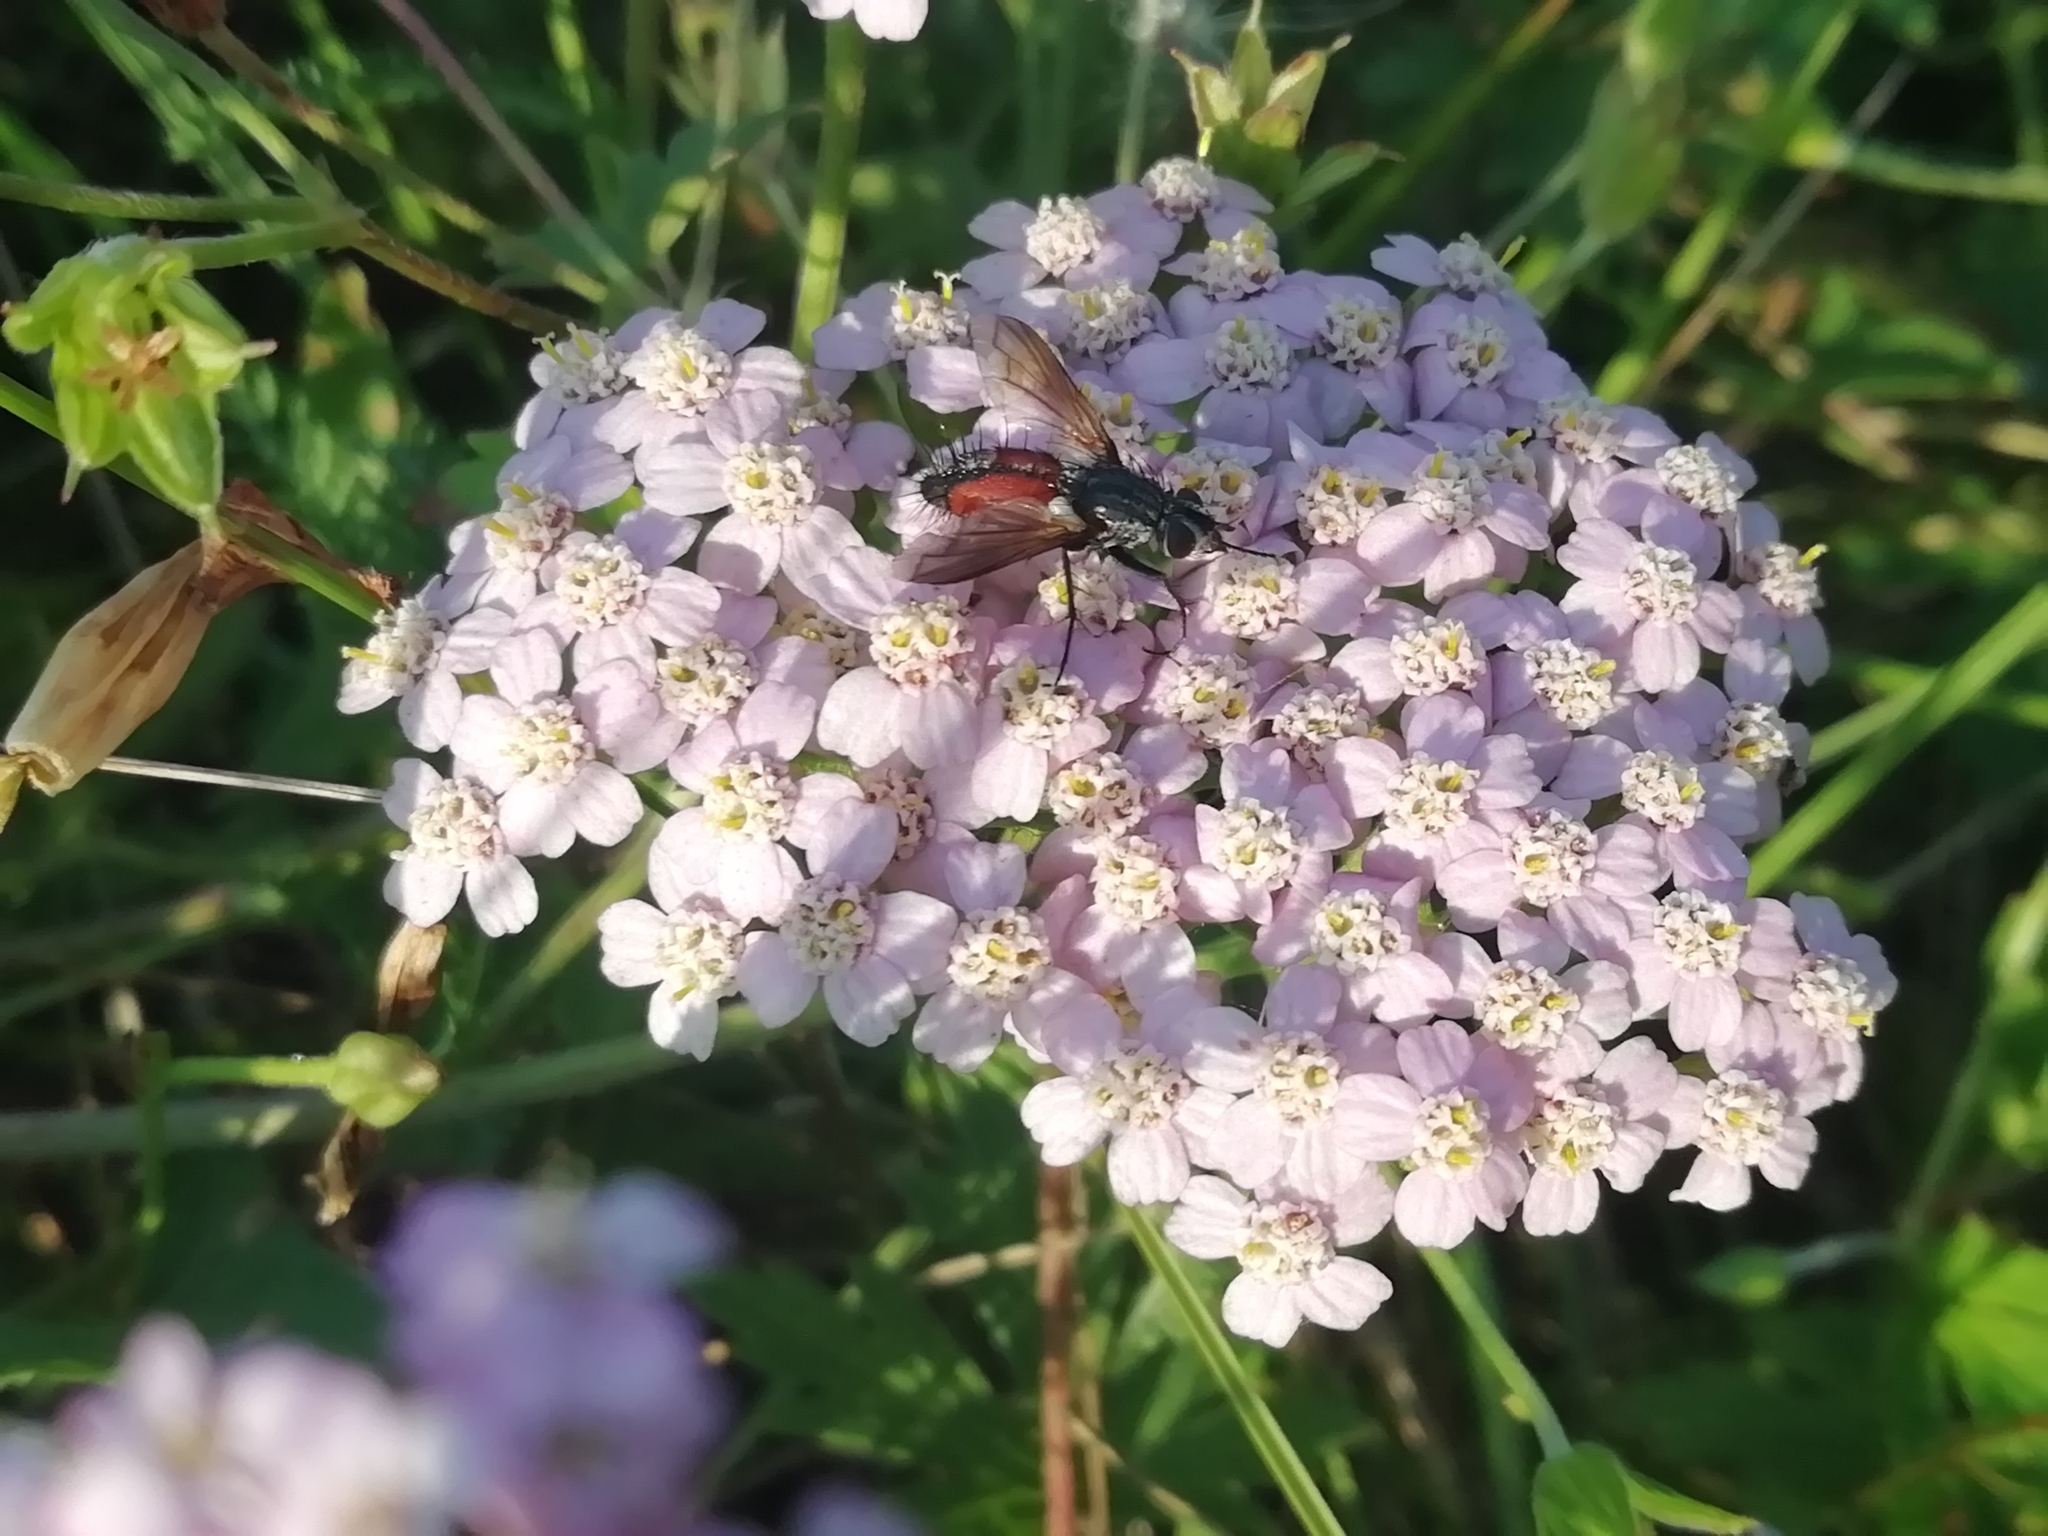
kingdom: Animalia
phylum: Arthropoda
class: Insecta
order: Diptera
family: Tachinidae
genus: Eriothrix
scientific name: Eriothrix rufomaculatus
